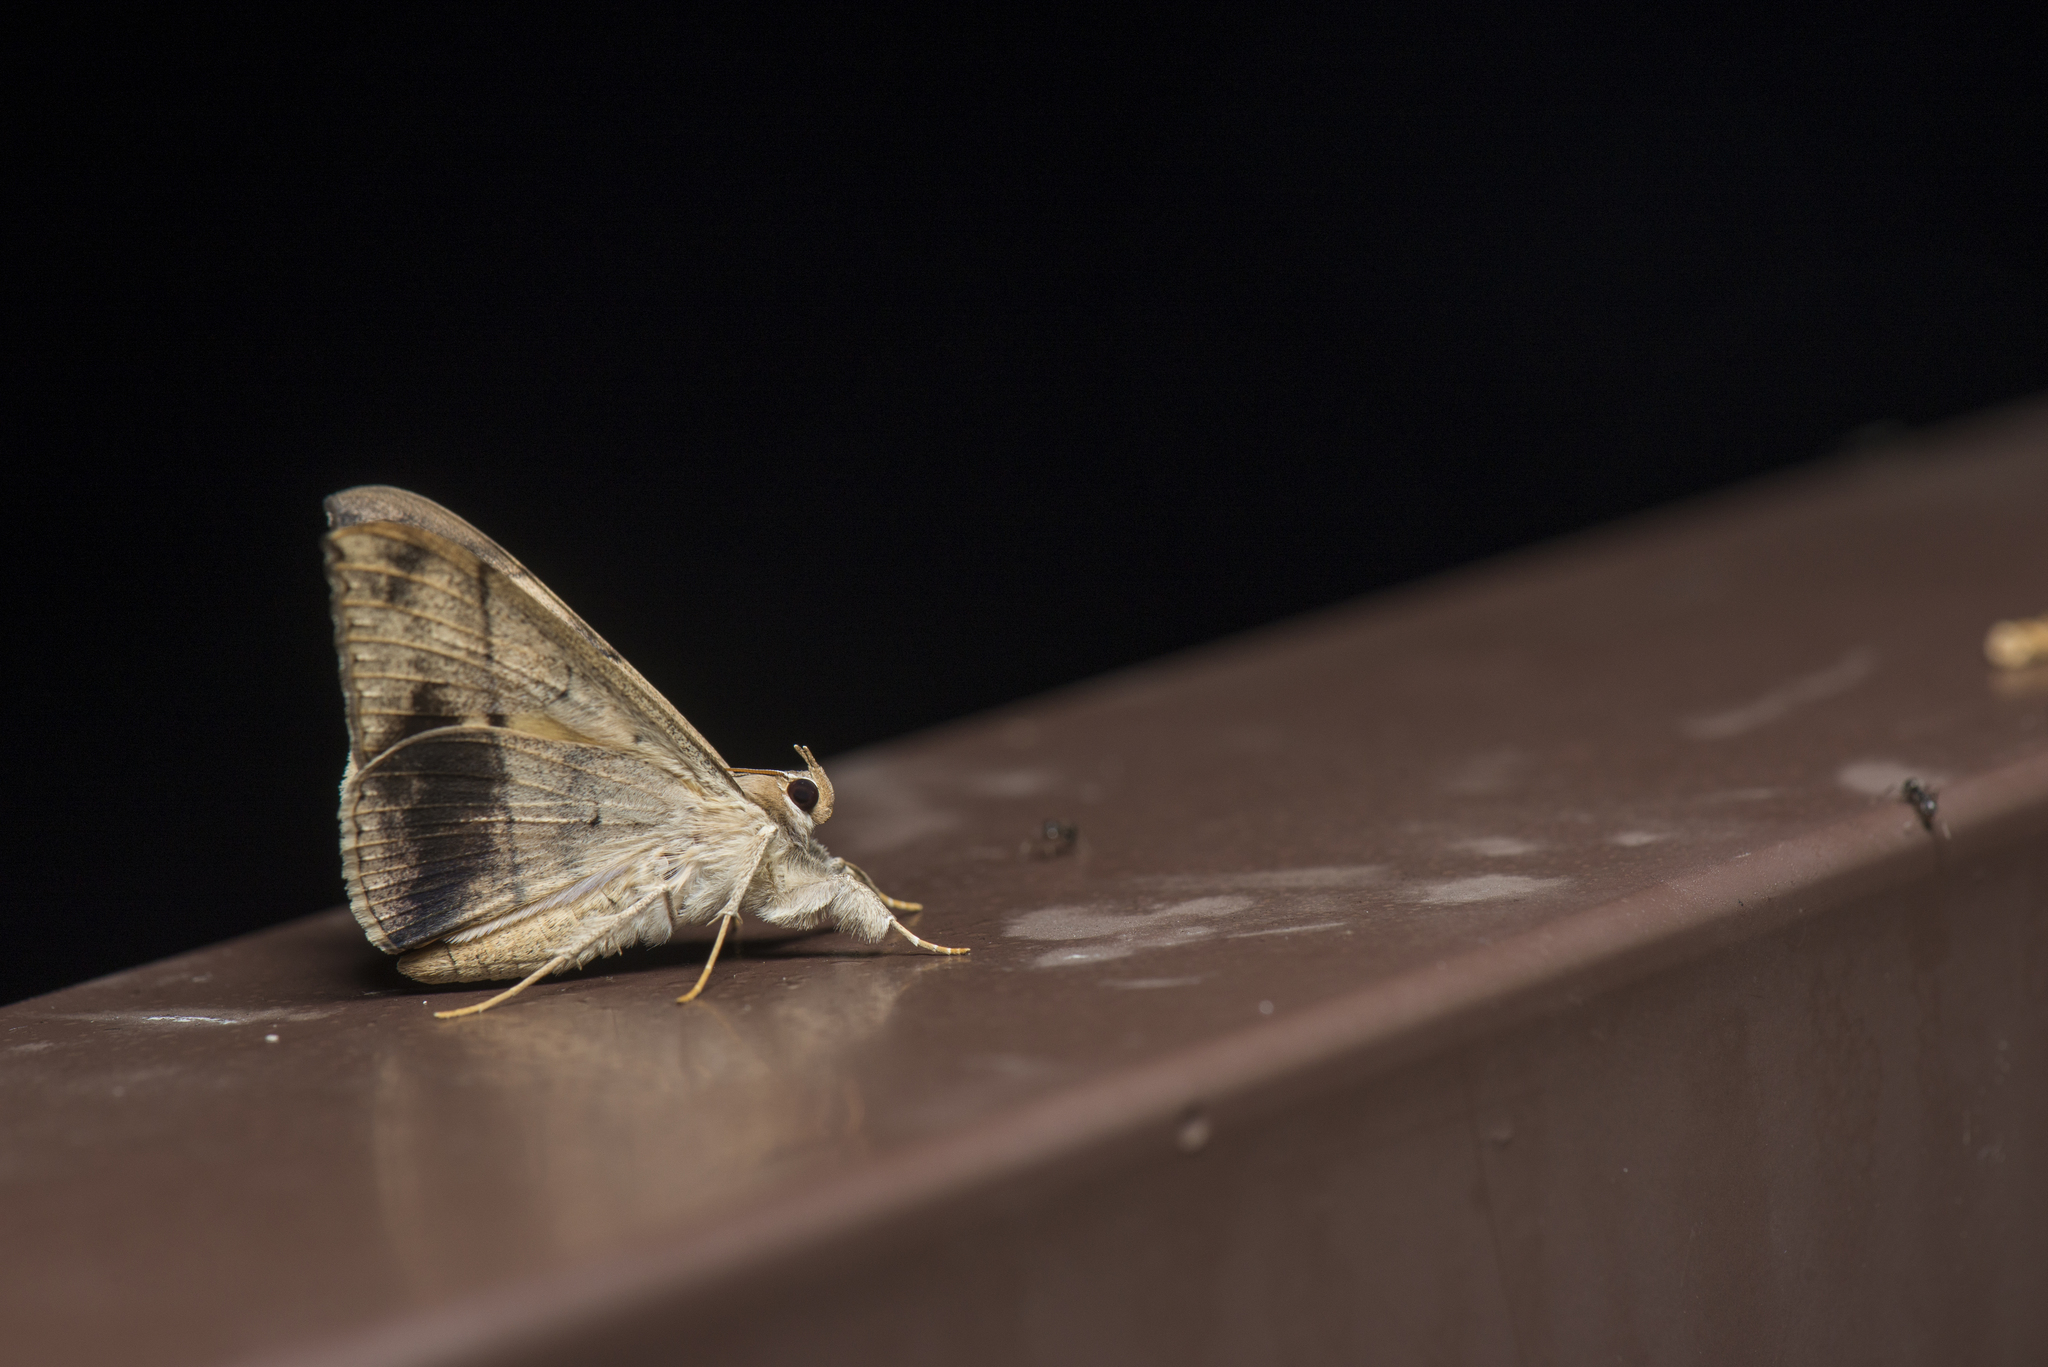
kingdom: Animalia
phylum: Arthropoda
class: Insecta
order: Lepidoptera
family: Erebidae
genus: Oxyodes
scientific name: Oxyodes scrobiculata
